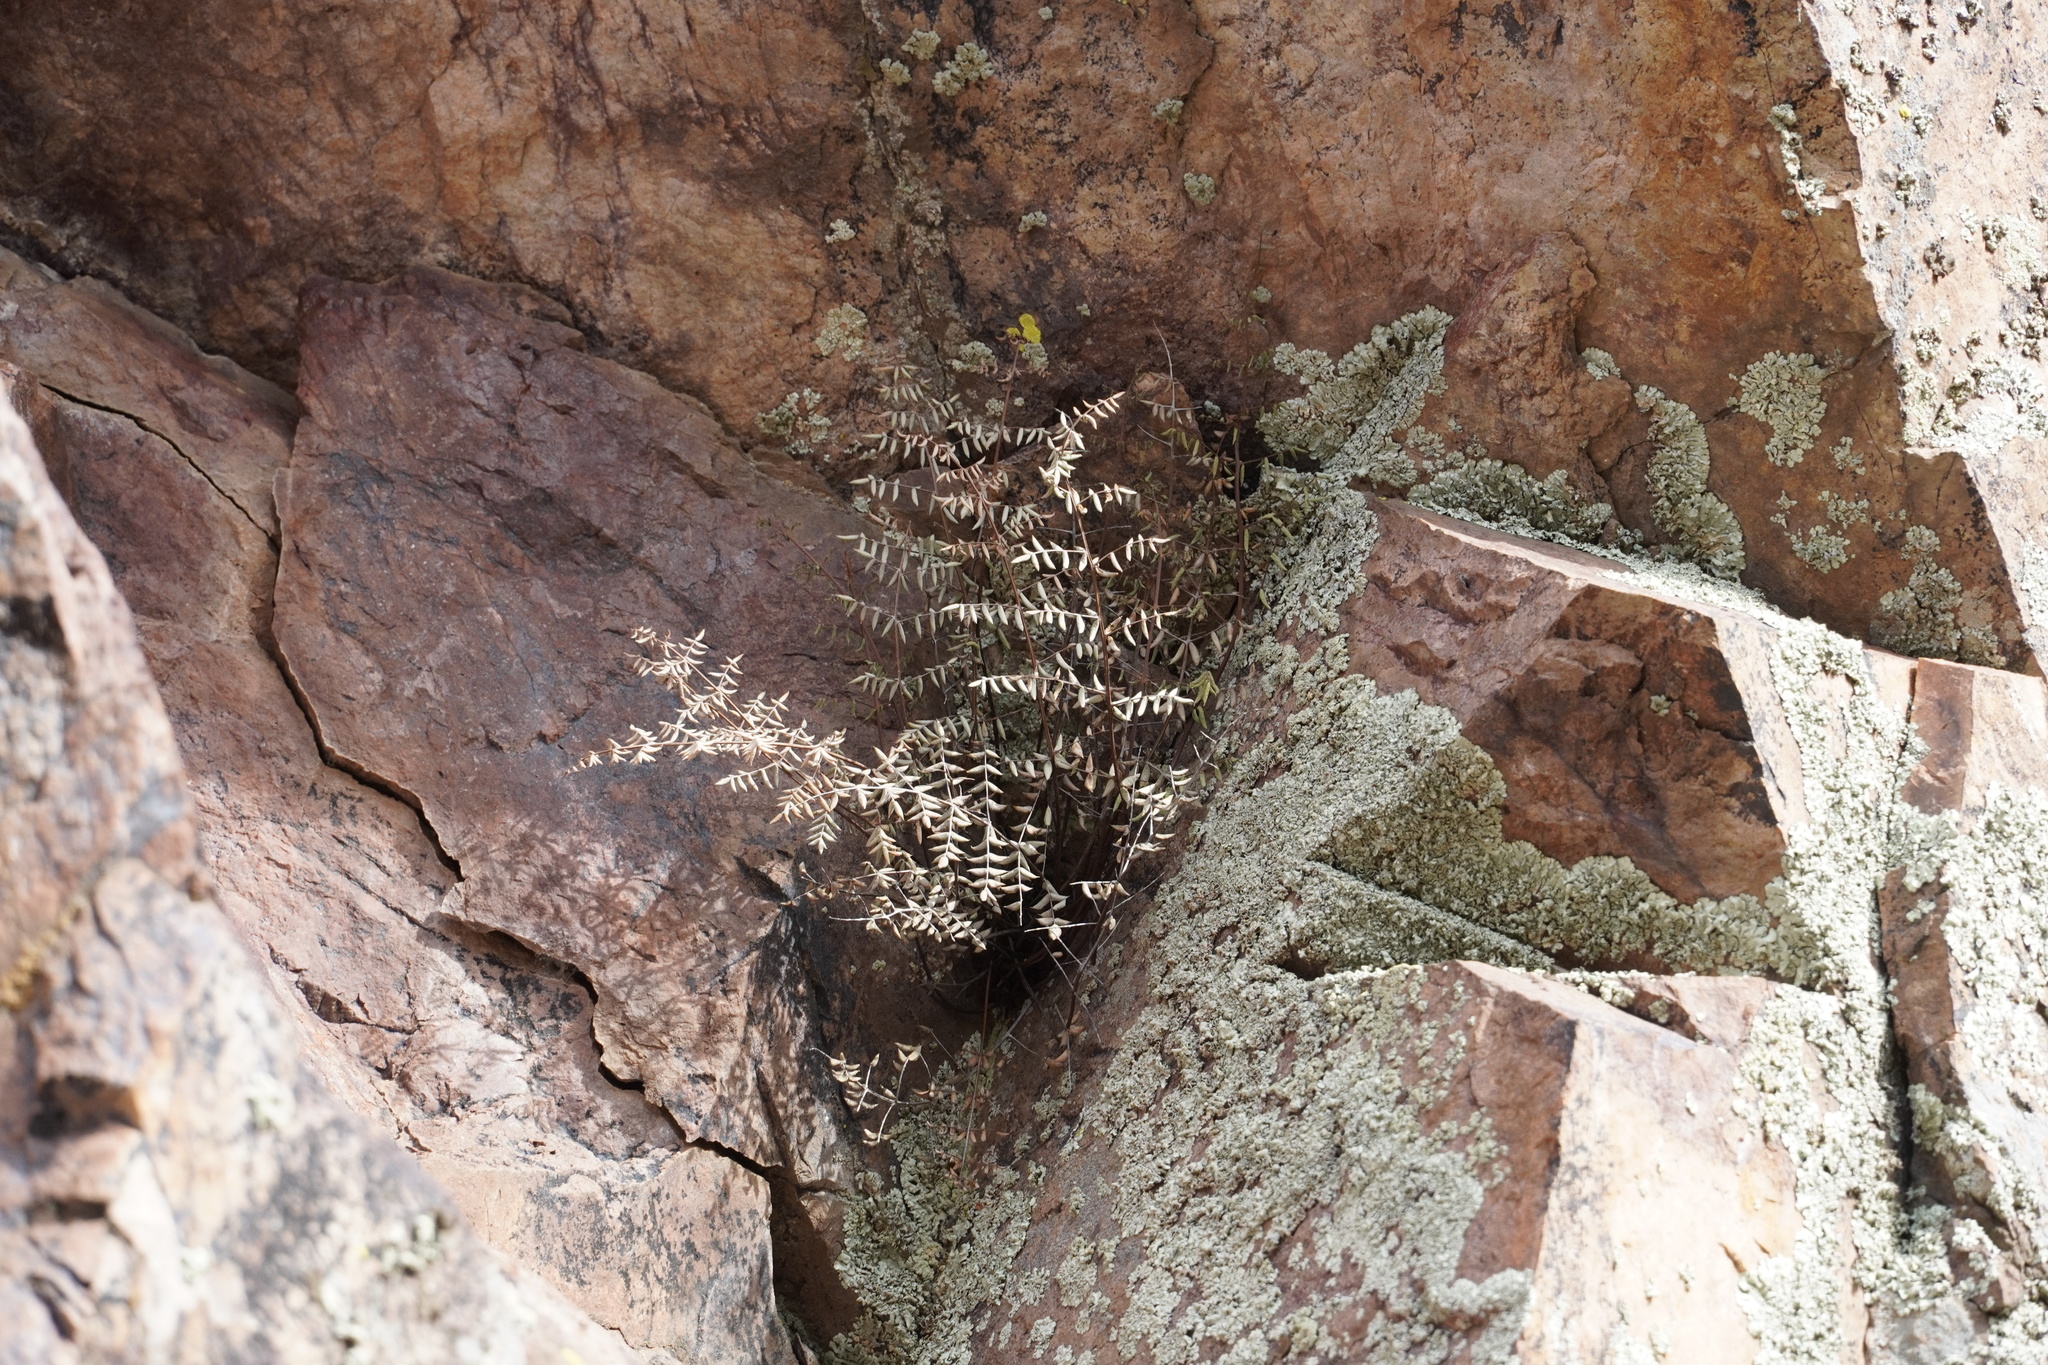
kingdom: Plantae
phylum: Tracheophyta
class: Polypodiopsida
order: Polypodiales
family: Pteridaceae
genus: Pellaea
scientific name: Pellaea truncata
